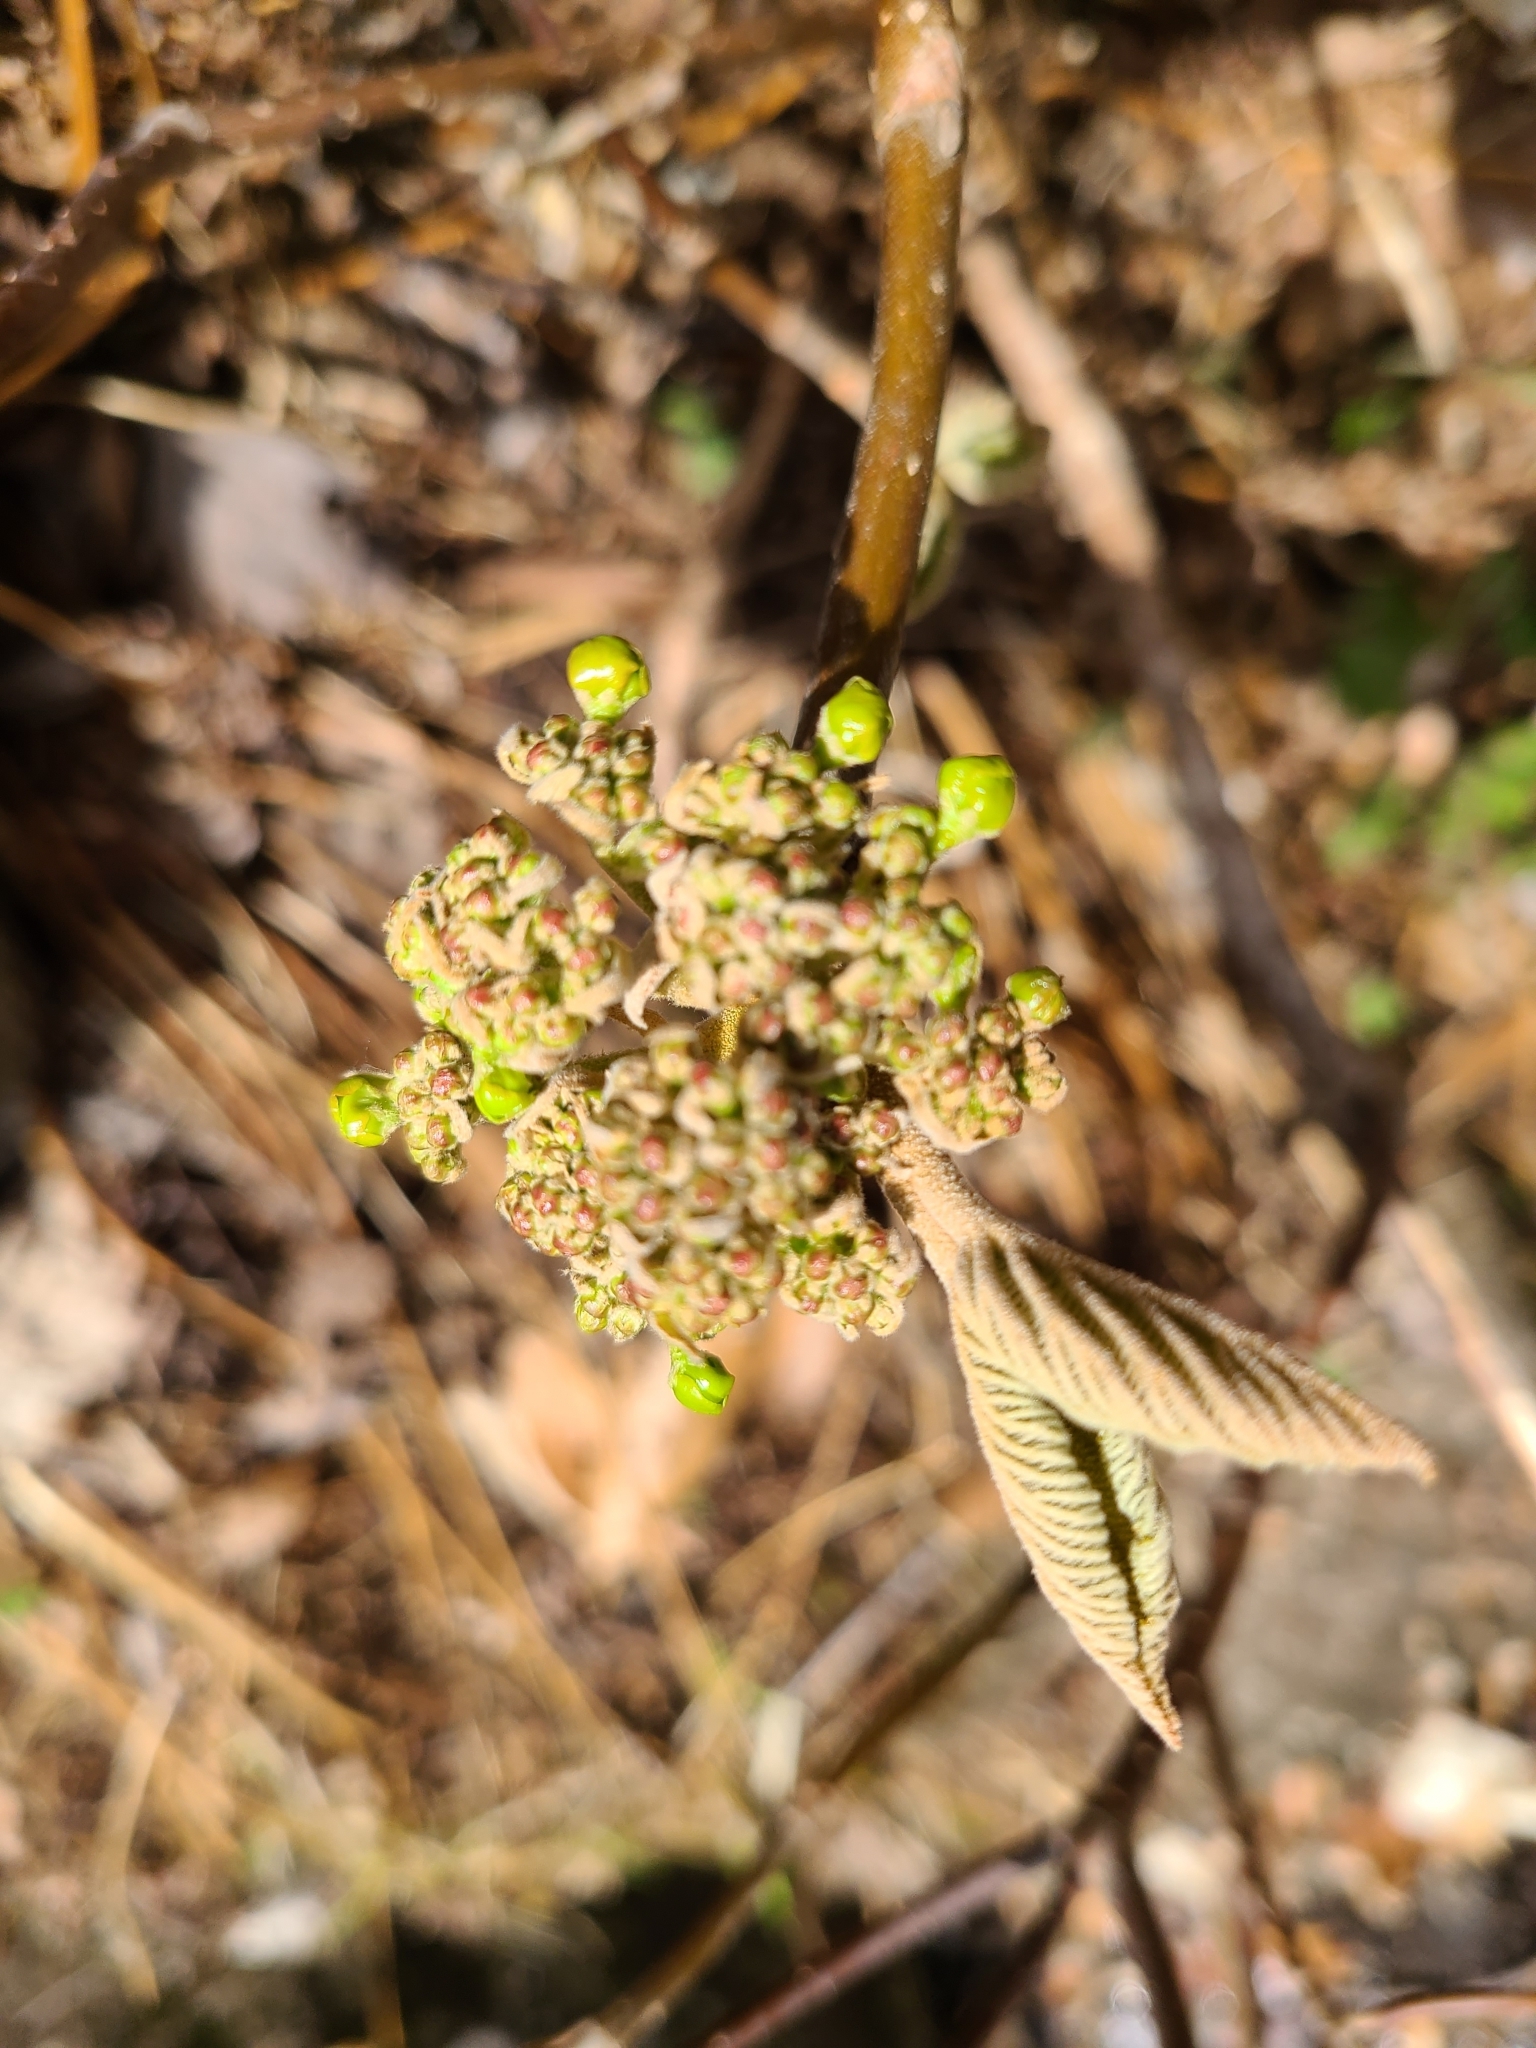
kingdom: Plantae
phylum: Tracheophyta
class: Magnoliopsida
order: Dipsacales
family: Viburnaceae
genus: Viburnum
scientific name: Viburnum lantanoides
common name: Hobblebush
